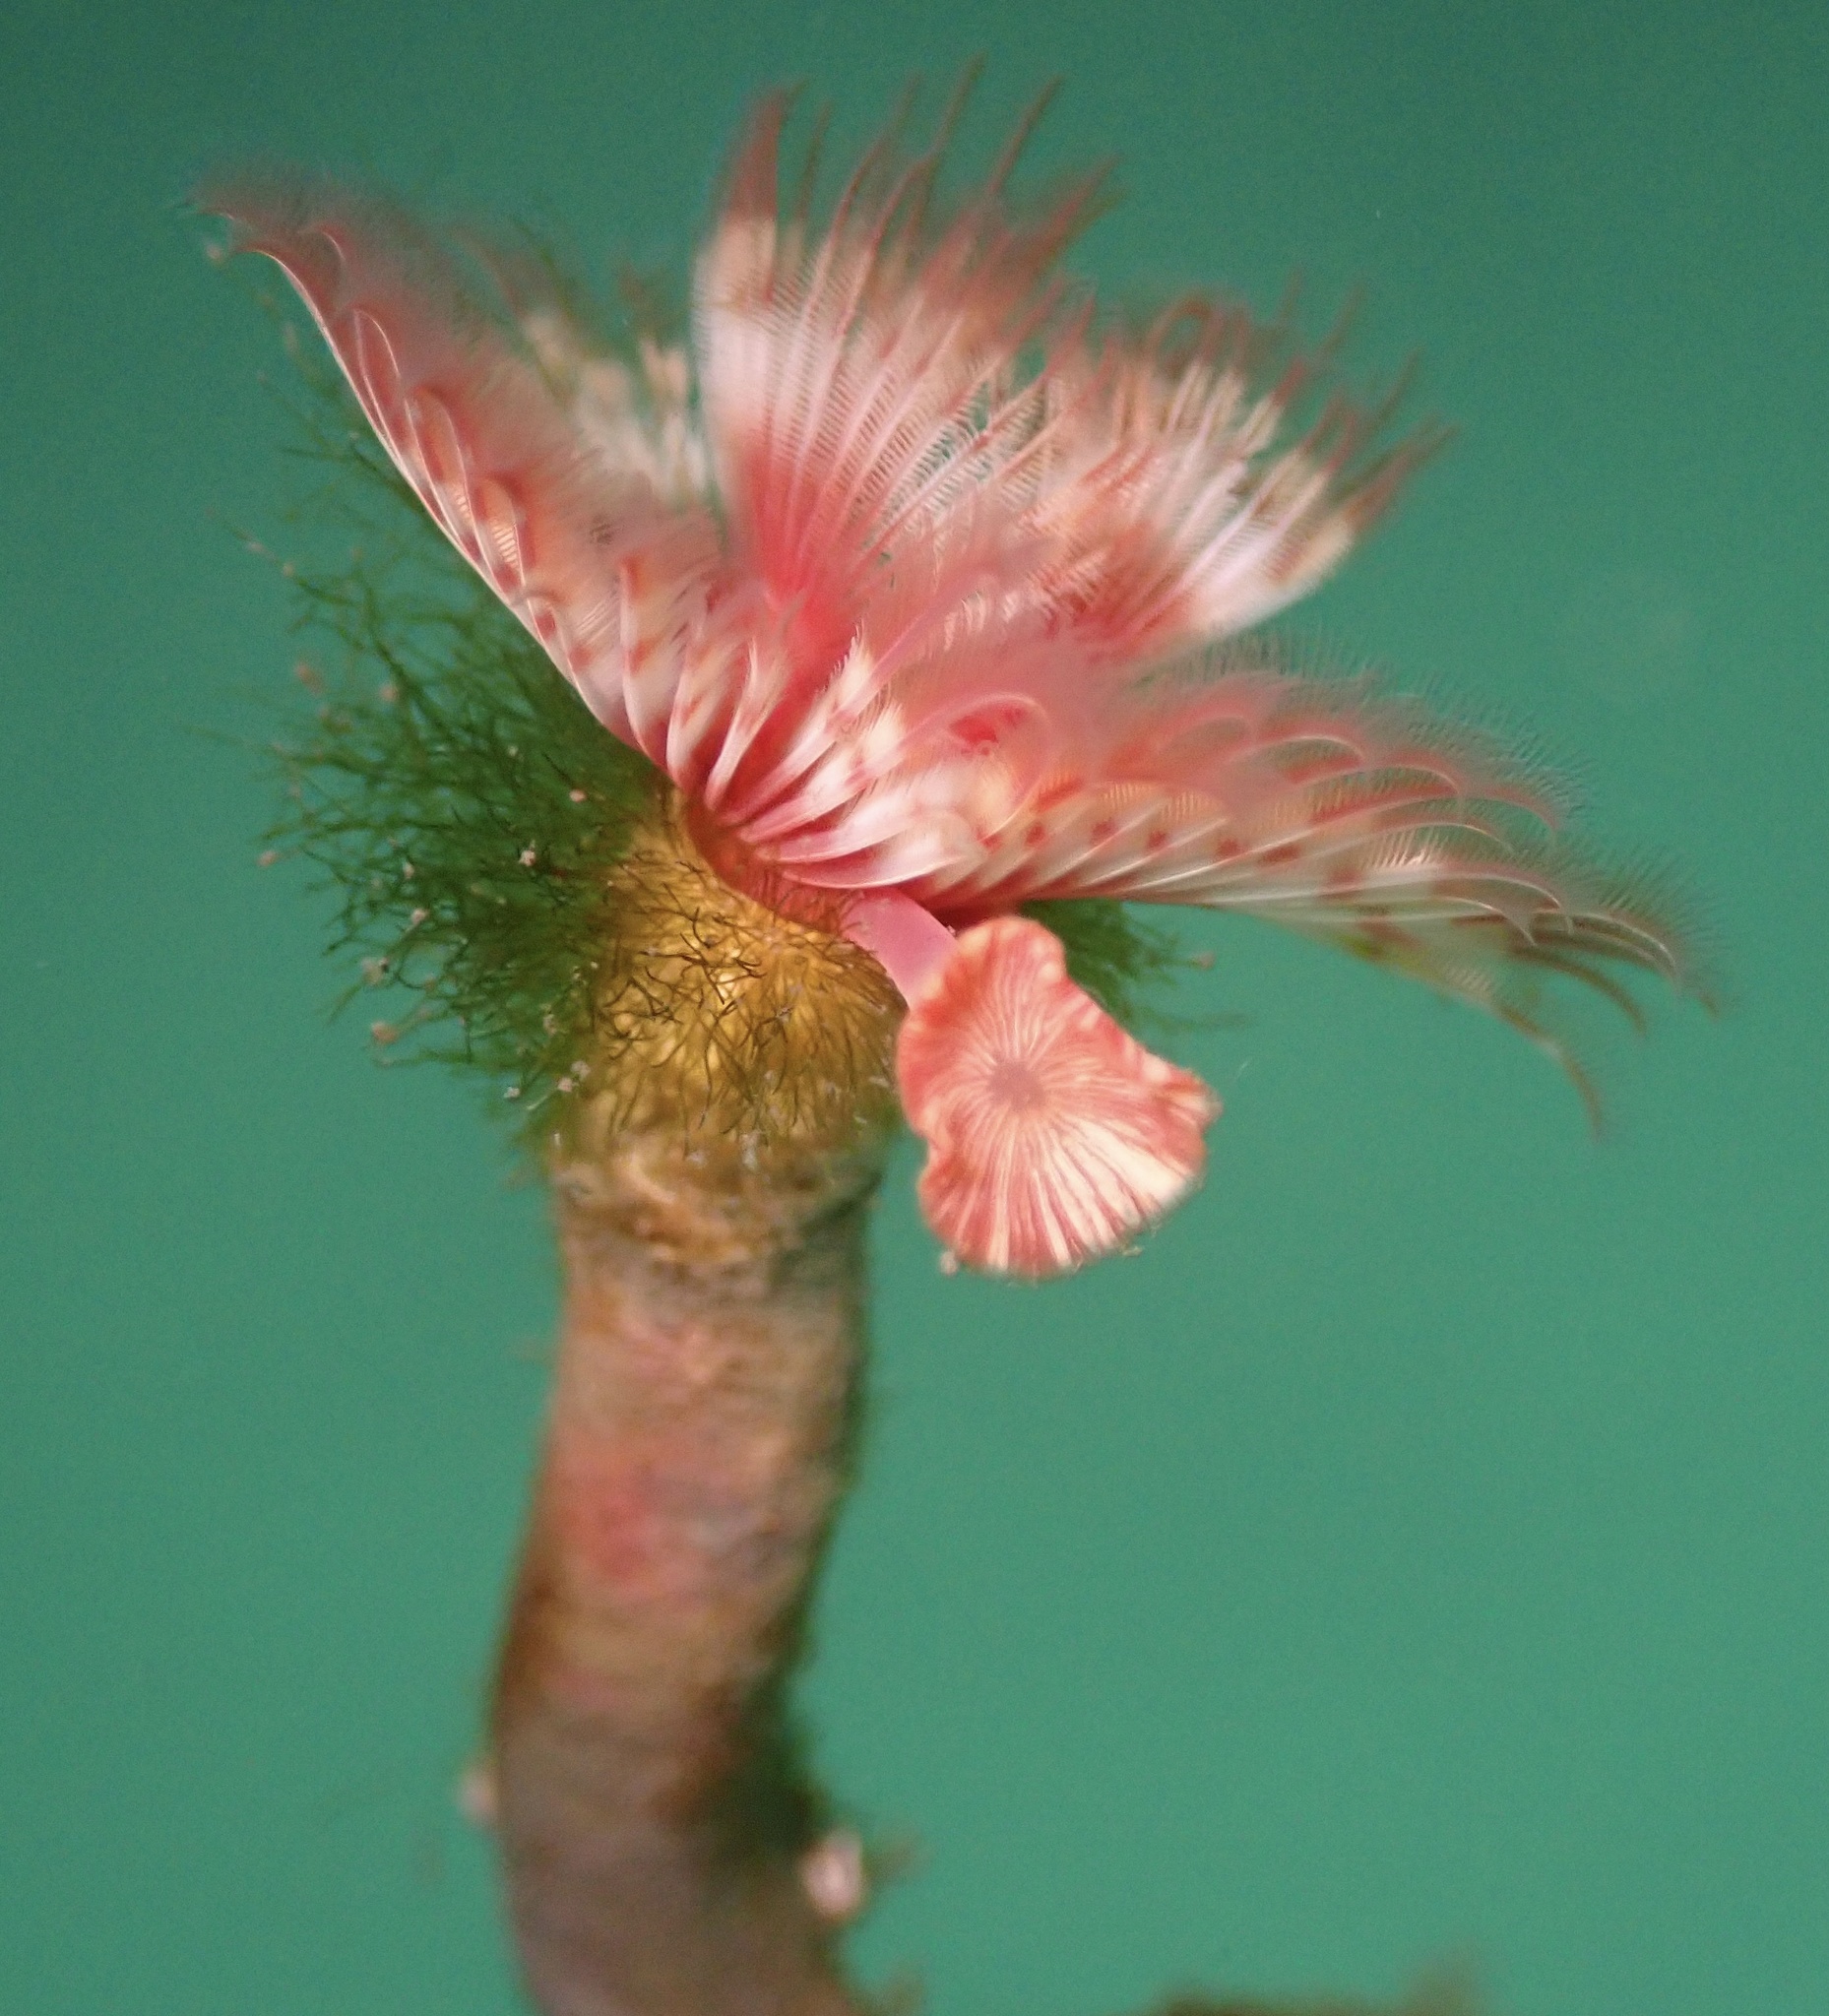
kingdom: Animalia
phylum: Annelida
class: Polychaeta
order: Sabellida
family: Serpulidae
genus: Serpula
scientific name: Serpula columbiana
